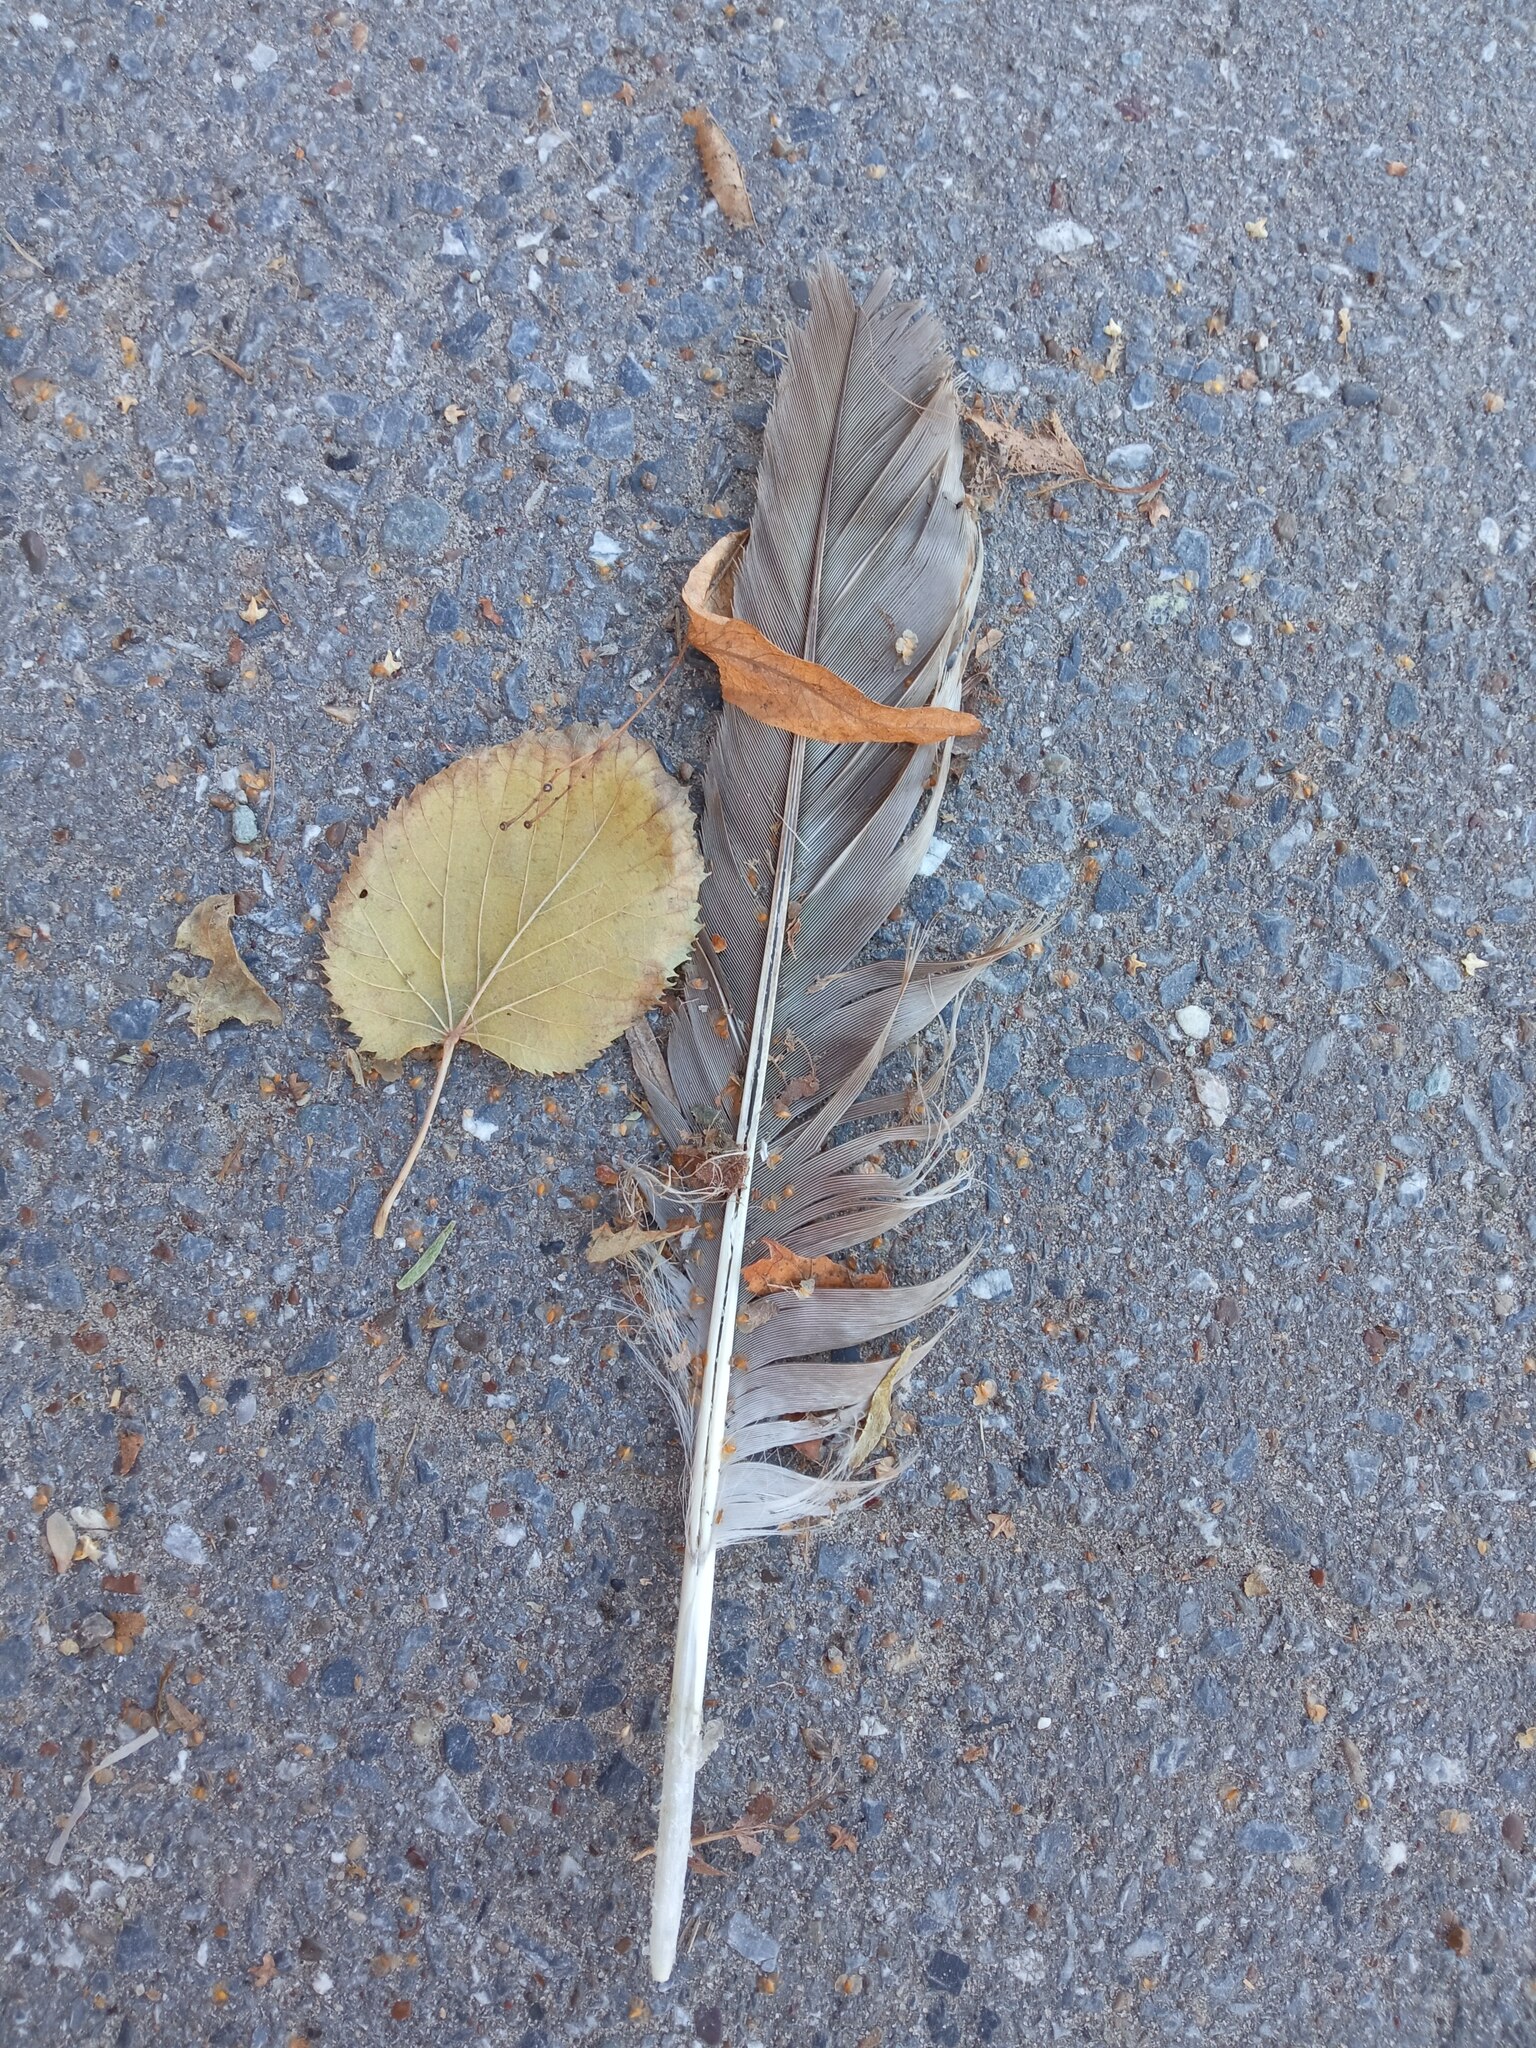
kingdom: Animalia
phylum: Chordata
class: Aves
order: Accipitriformes
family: Accipitridae
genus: Milvus
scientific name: Milvus migrans
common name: Black kite
